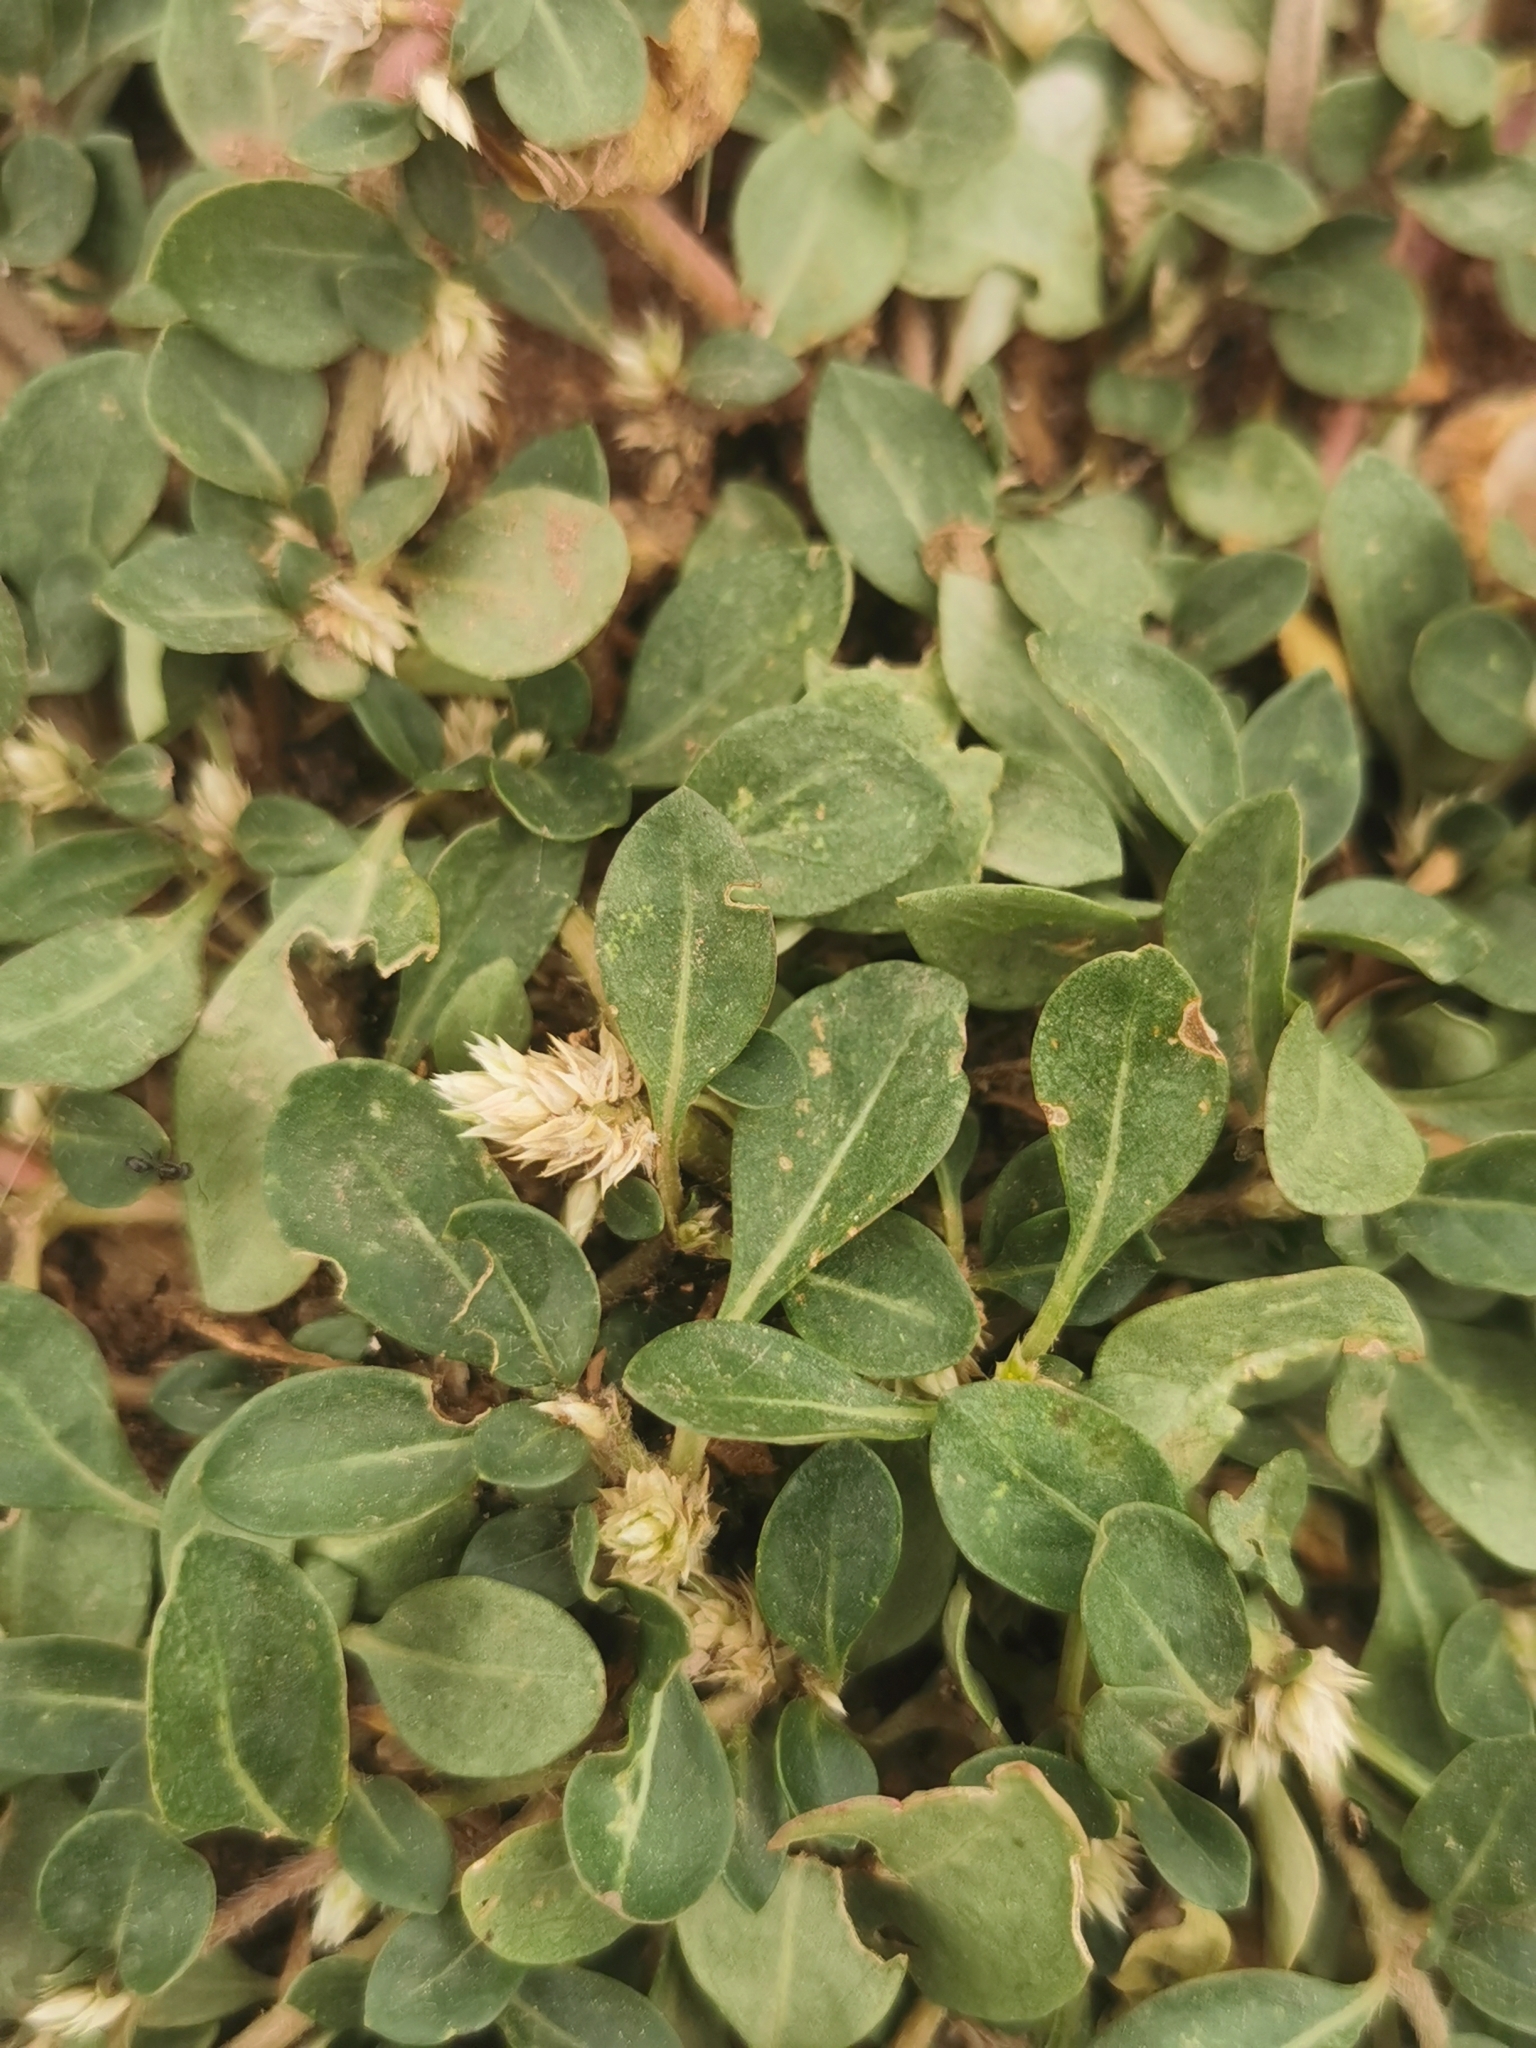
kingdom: Plantae
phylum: Tracheophyta
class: Magnoliopsida
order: Caryophyllales
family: Amaranthaceae
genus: Alternanthera
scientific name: Alternanthera caracasana
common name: Washerwoman
